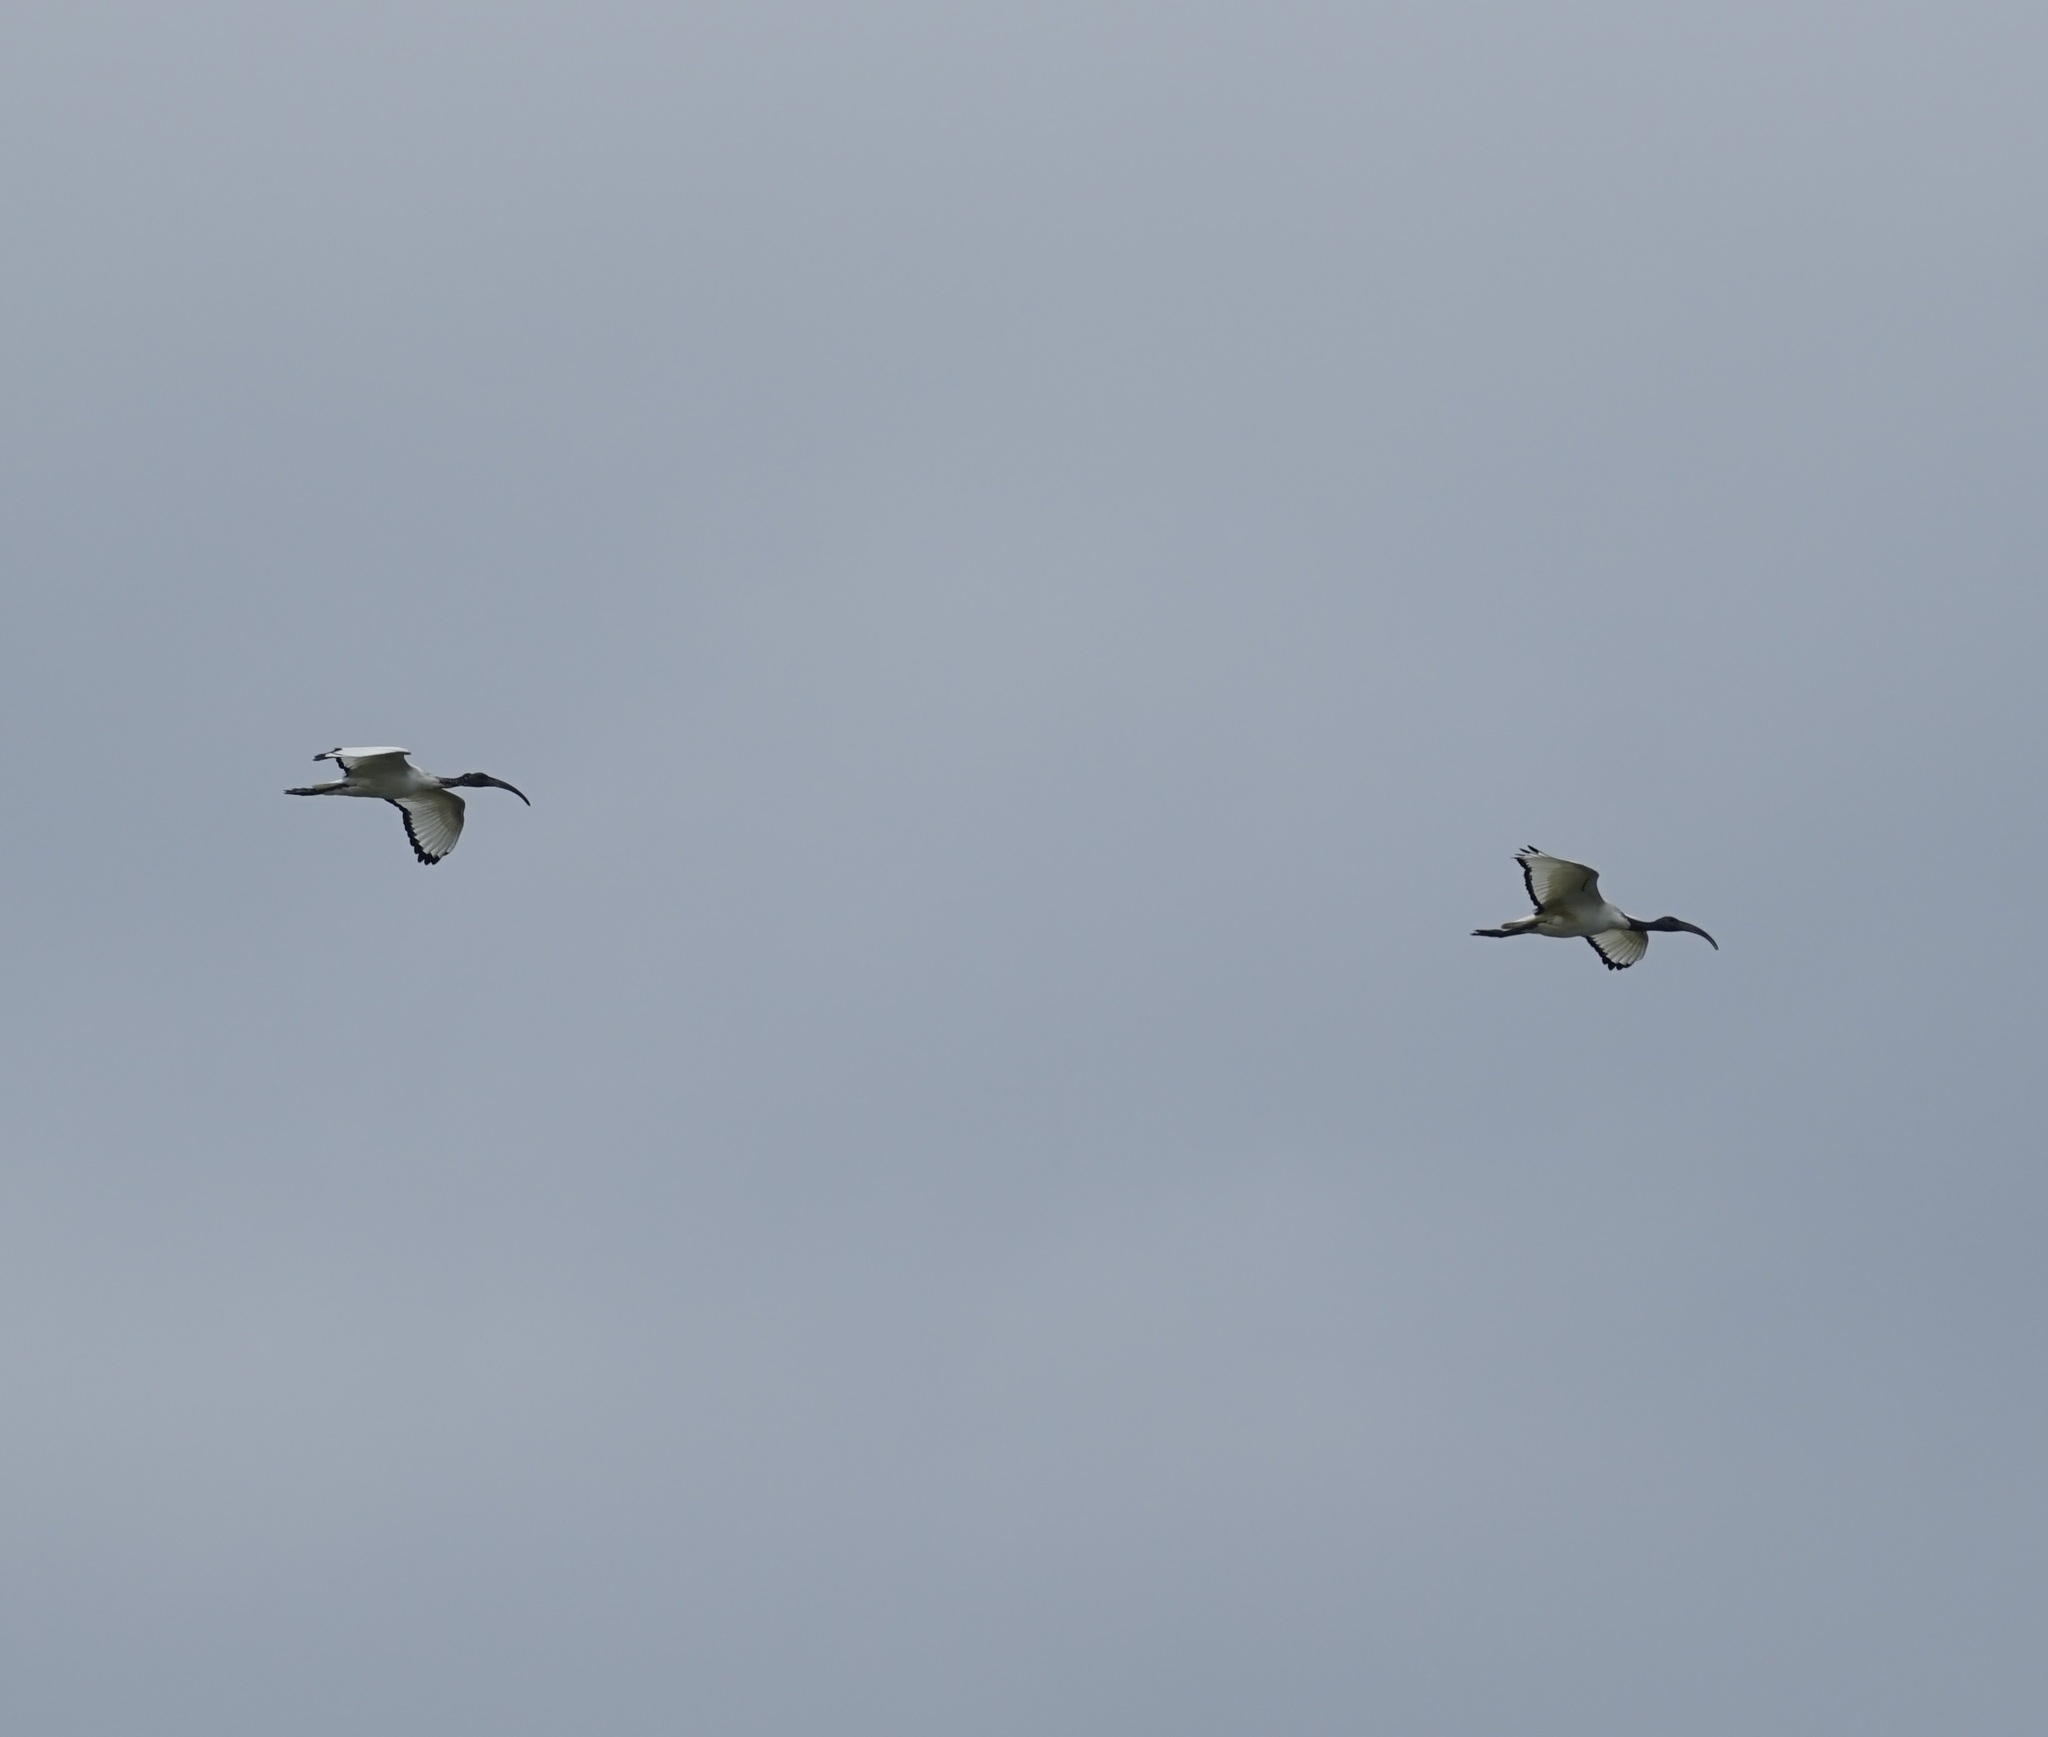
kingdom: Animalia
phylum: Chordata
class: Aves
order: Pelecaniformes
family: Threskiornithidae
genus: Threskiornis
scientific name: Threskiornis aethiopicus
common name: Sacred ibis
